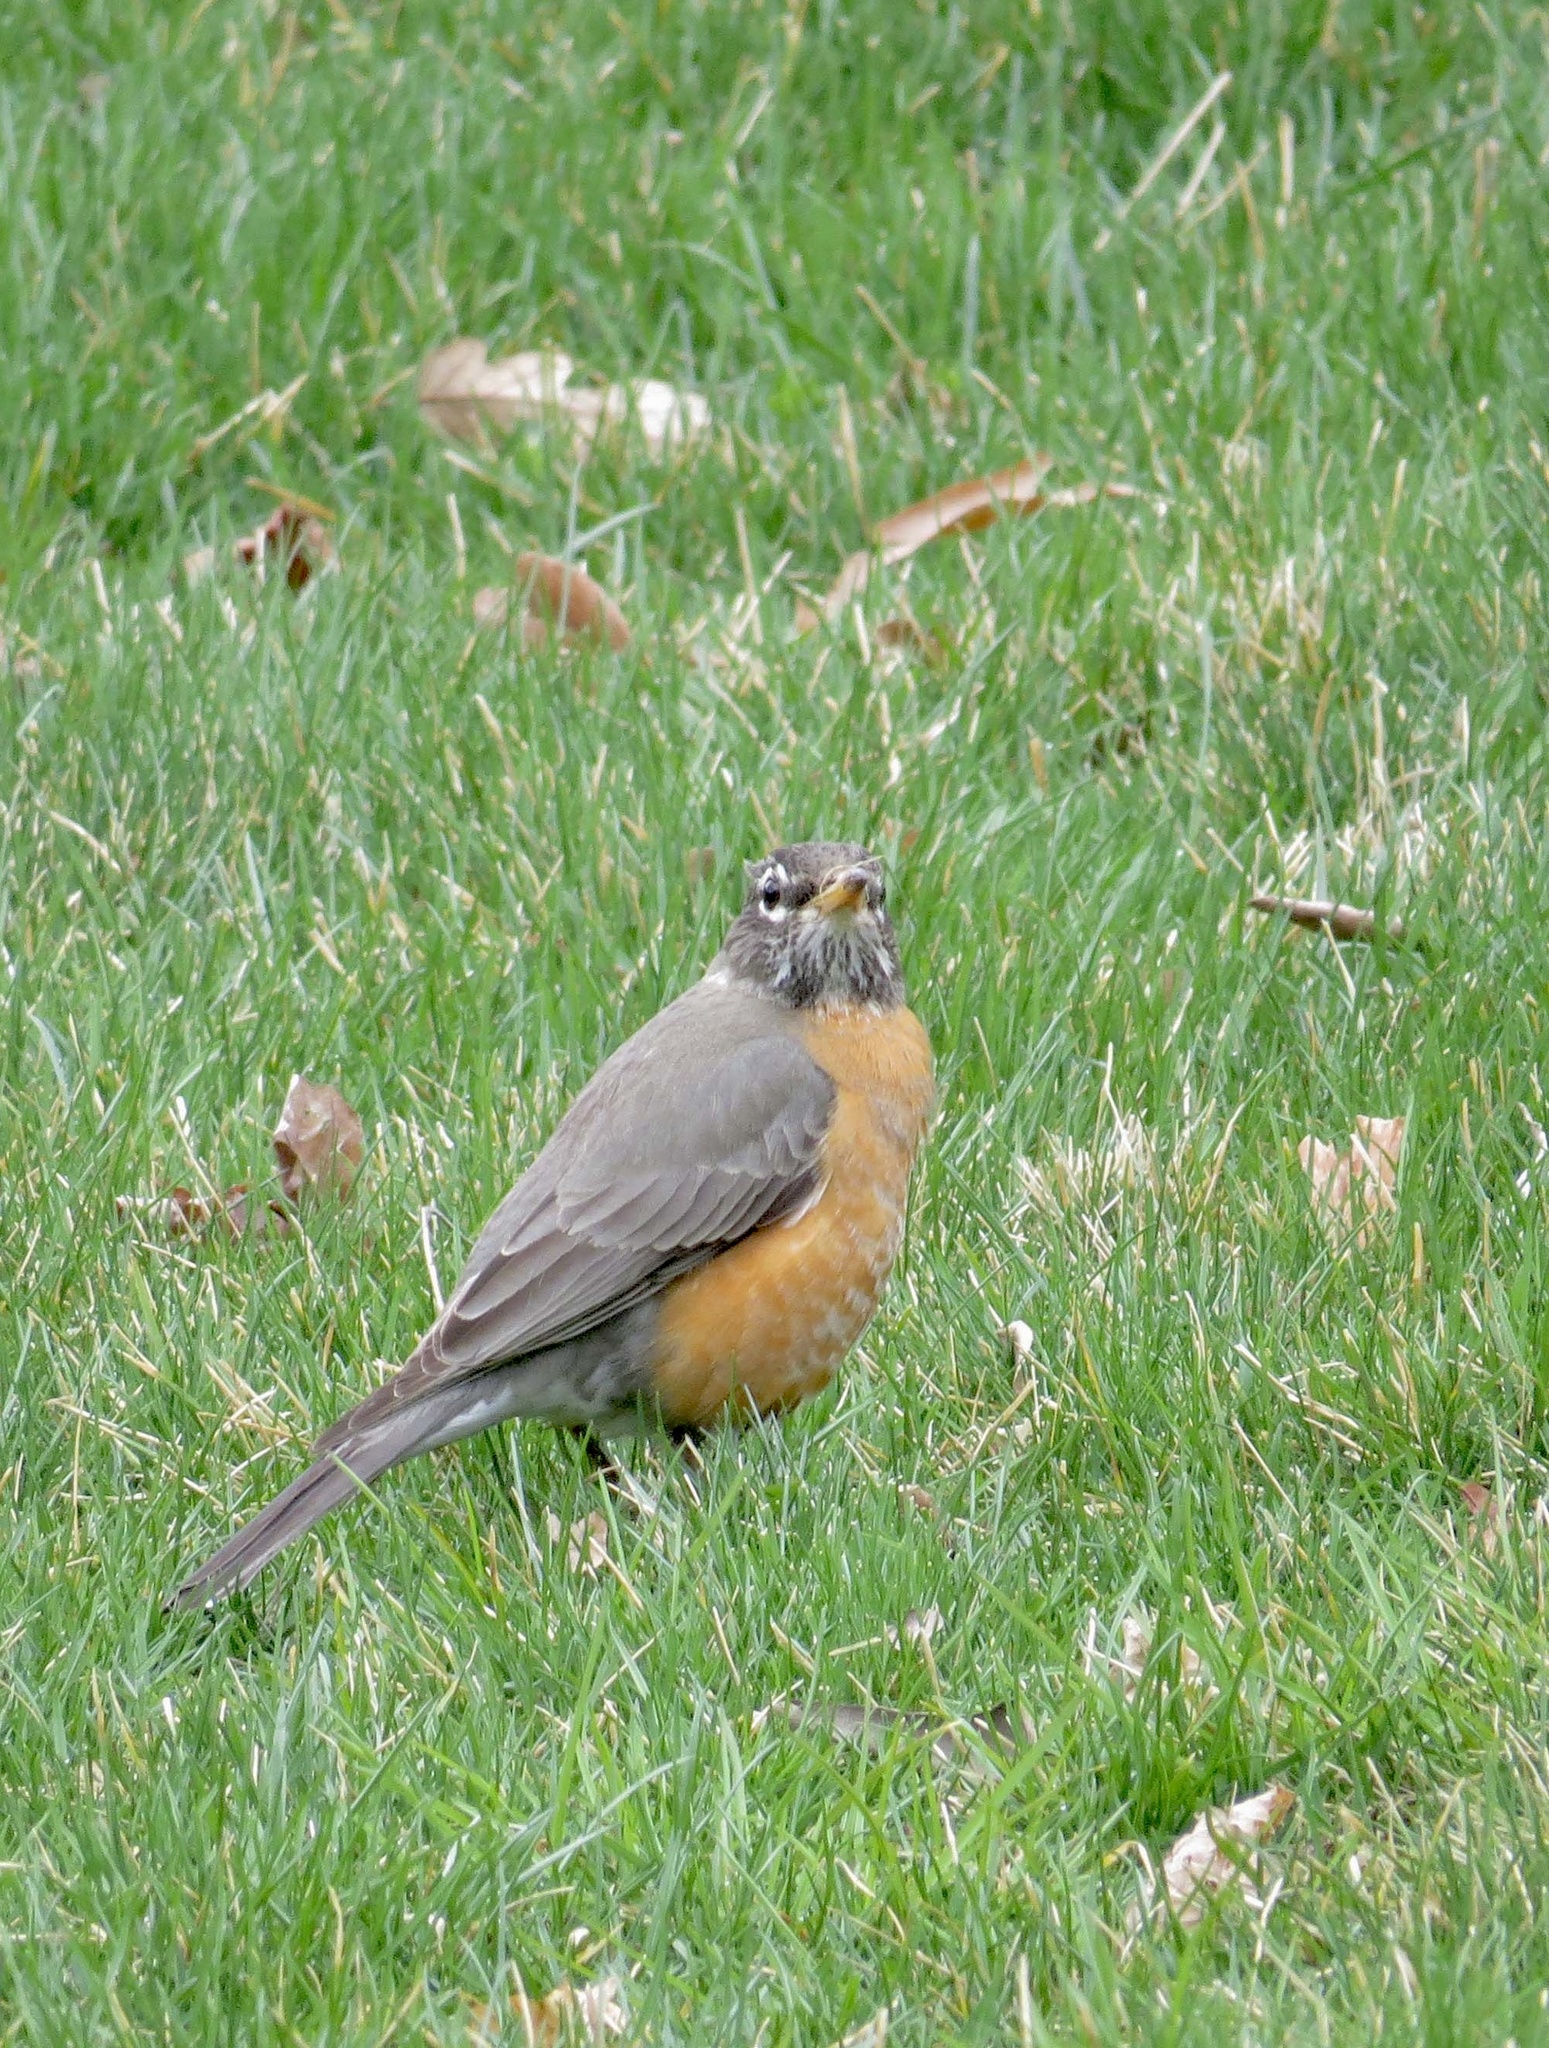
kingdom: Animalia
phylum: Chordata
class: Aves
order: Passeriformes
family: Turdidae
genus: Turdus
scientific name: Turdus migratorius
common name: American robin
